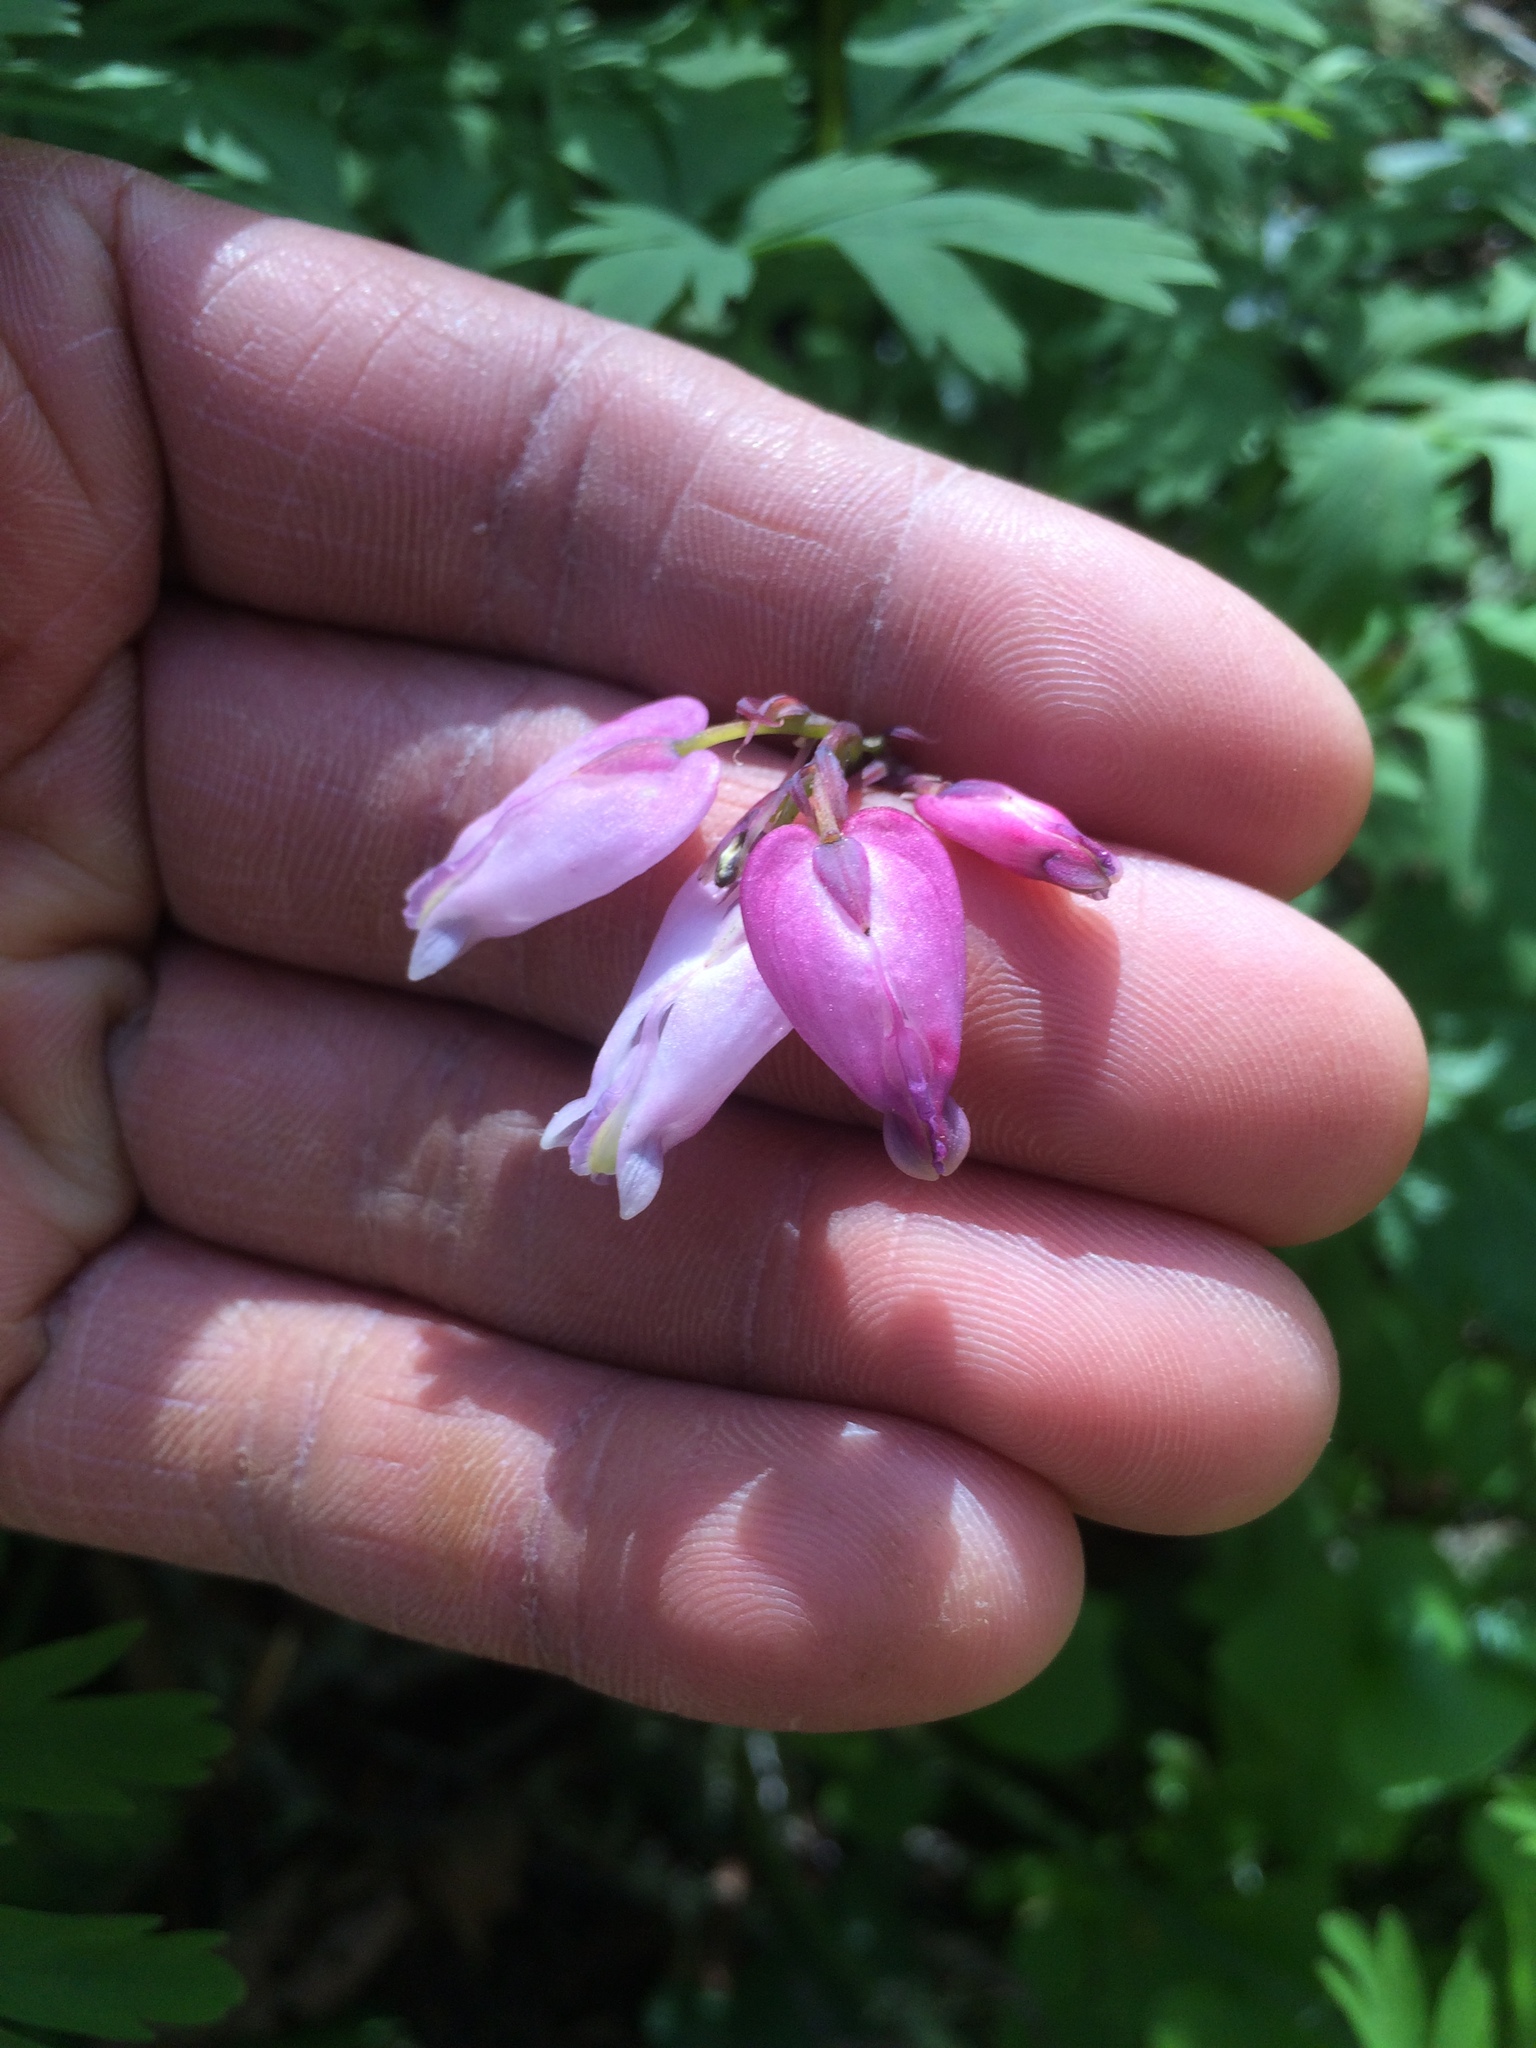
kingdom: Plantae
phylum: Tracheophyta
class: Magnoliopsida
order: Ranunculales
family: Papaveraceae
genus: Dicentra
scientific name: Dicentra formosa
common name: Bleeding-heart
